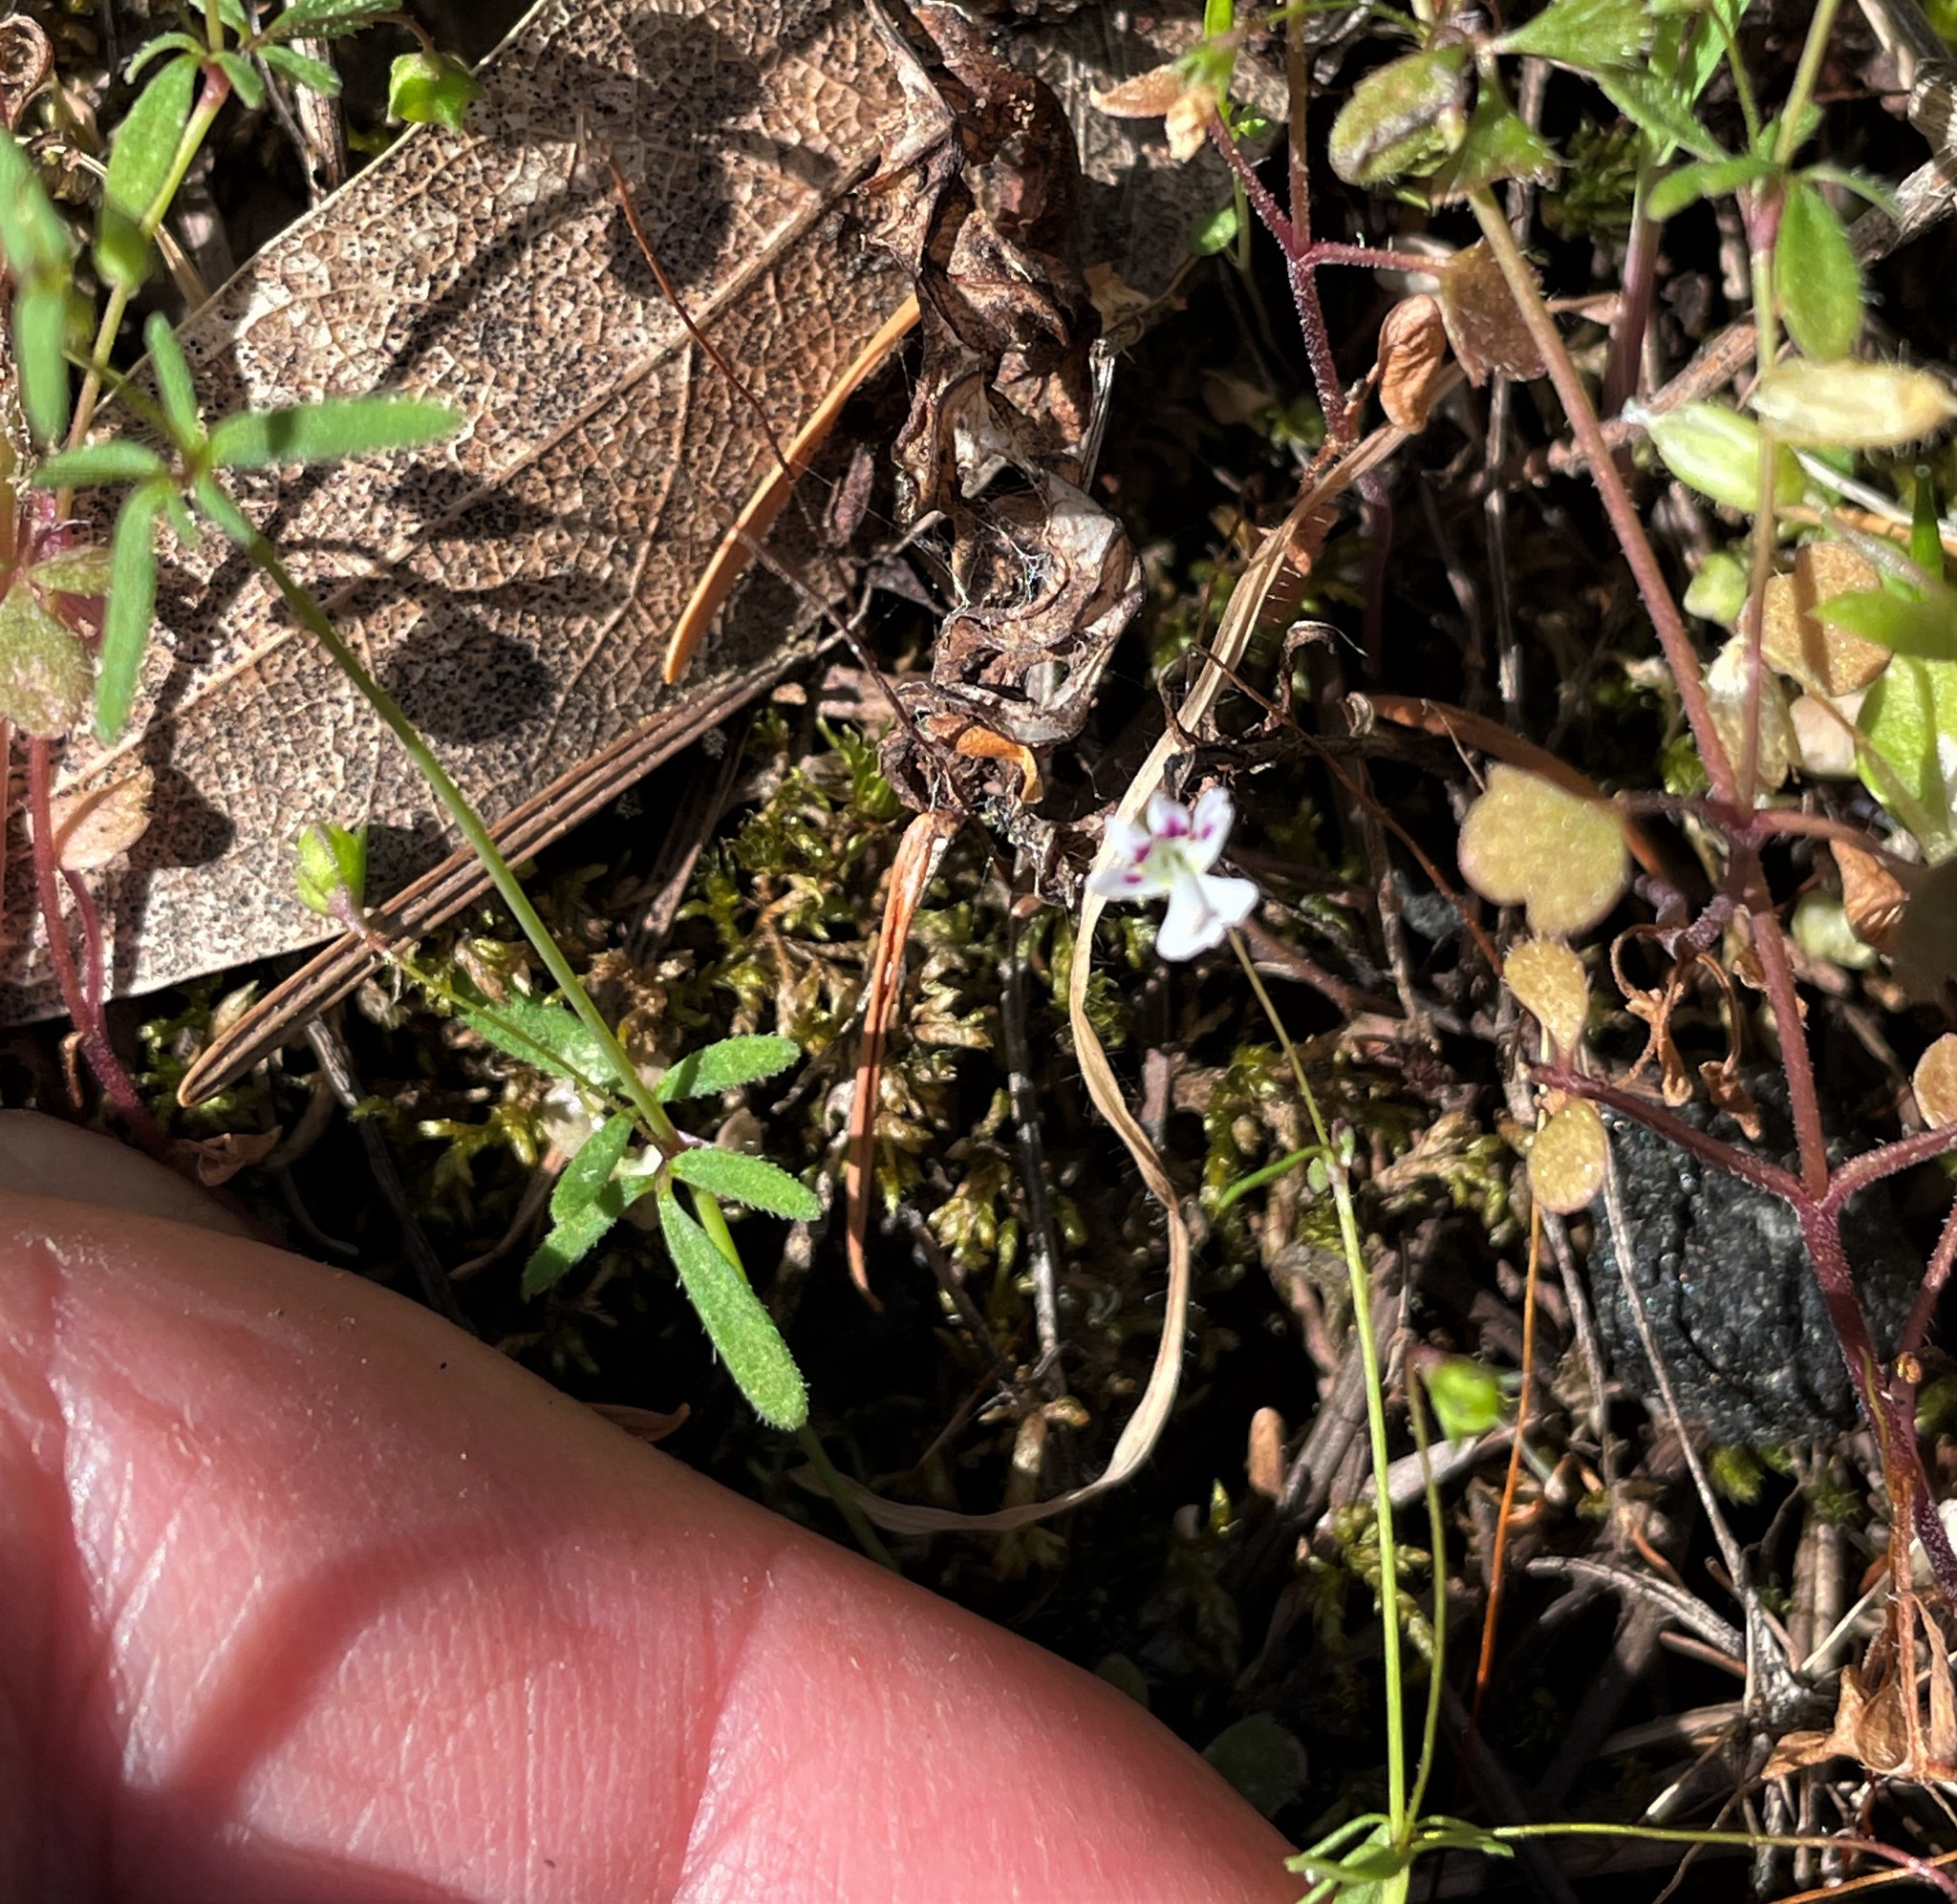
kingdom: Plantae
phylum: Tracheophyta
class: Magnoliopsida
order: Lamiales
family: Plantaginaceae
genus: Tonella
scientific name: Tonella tenella
